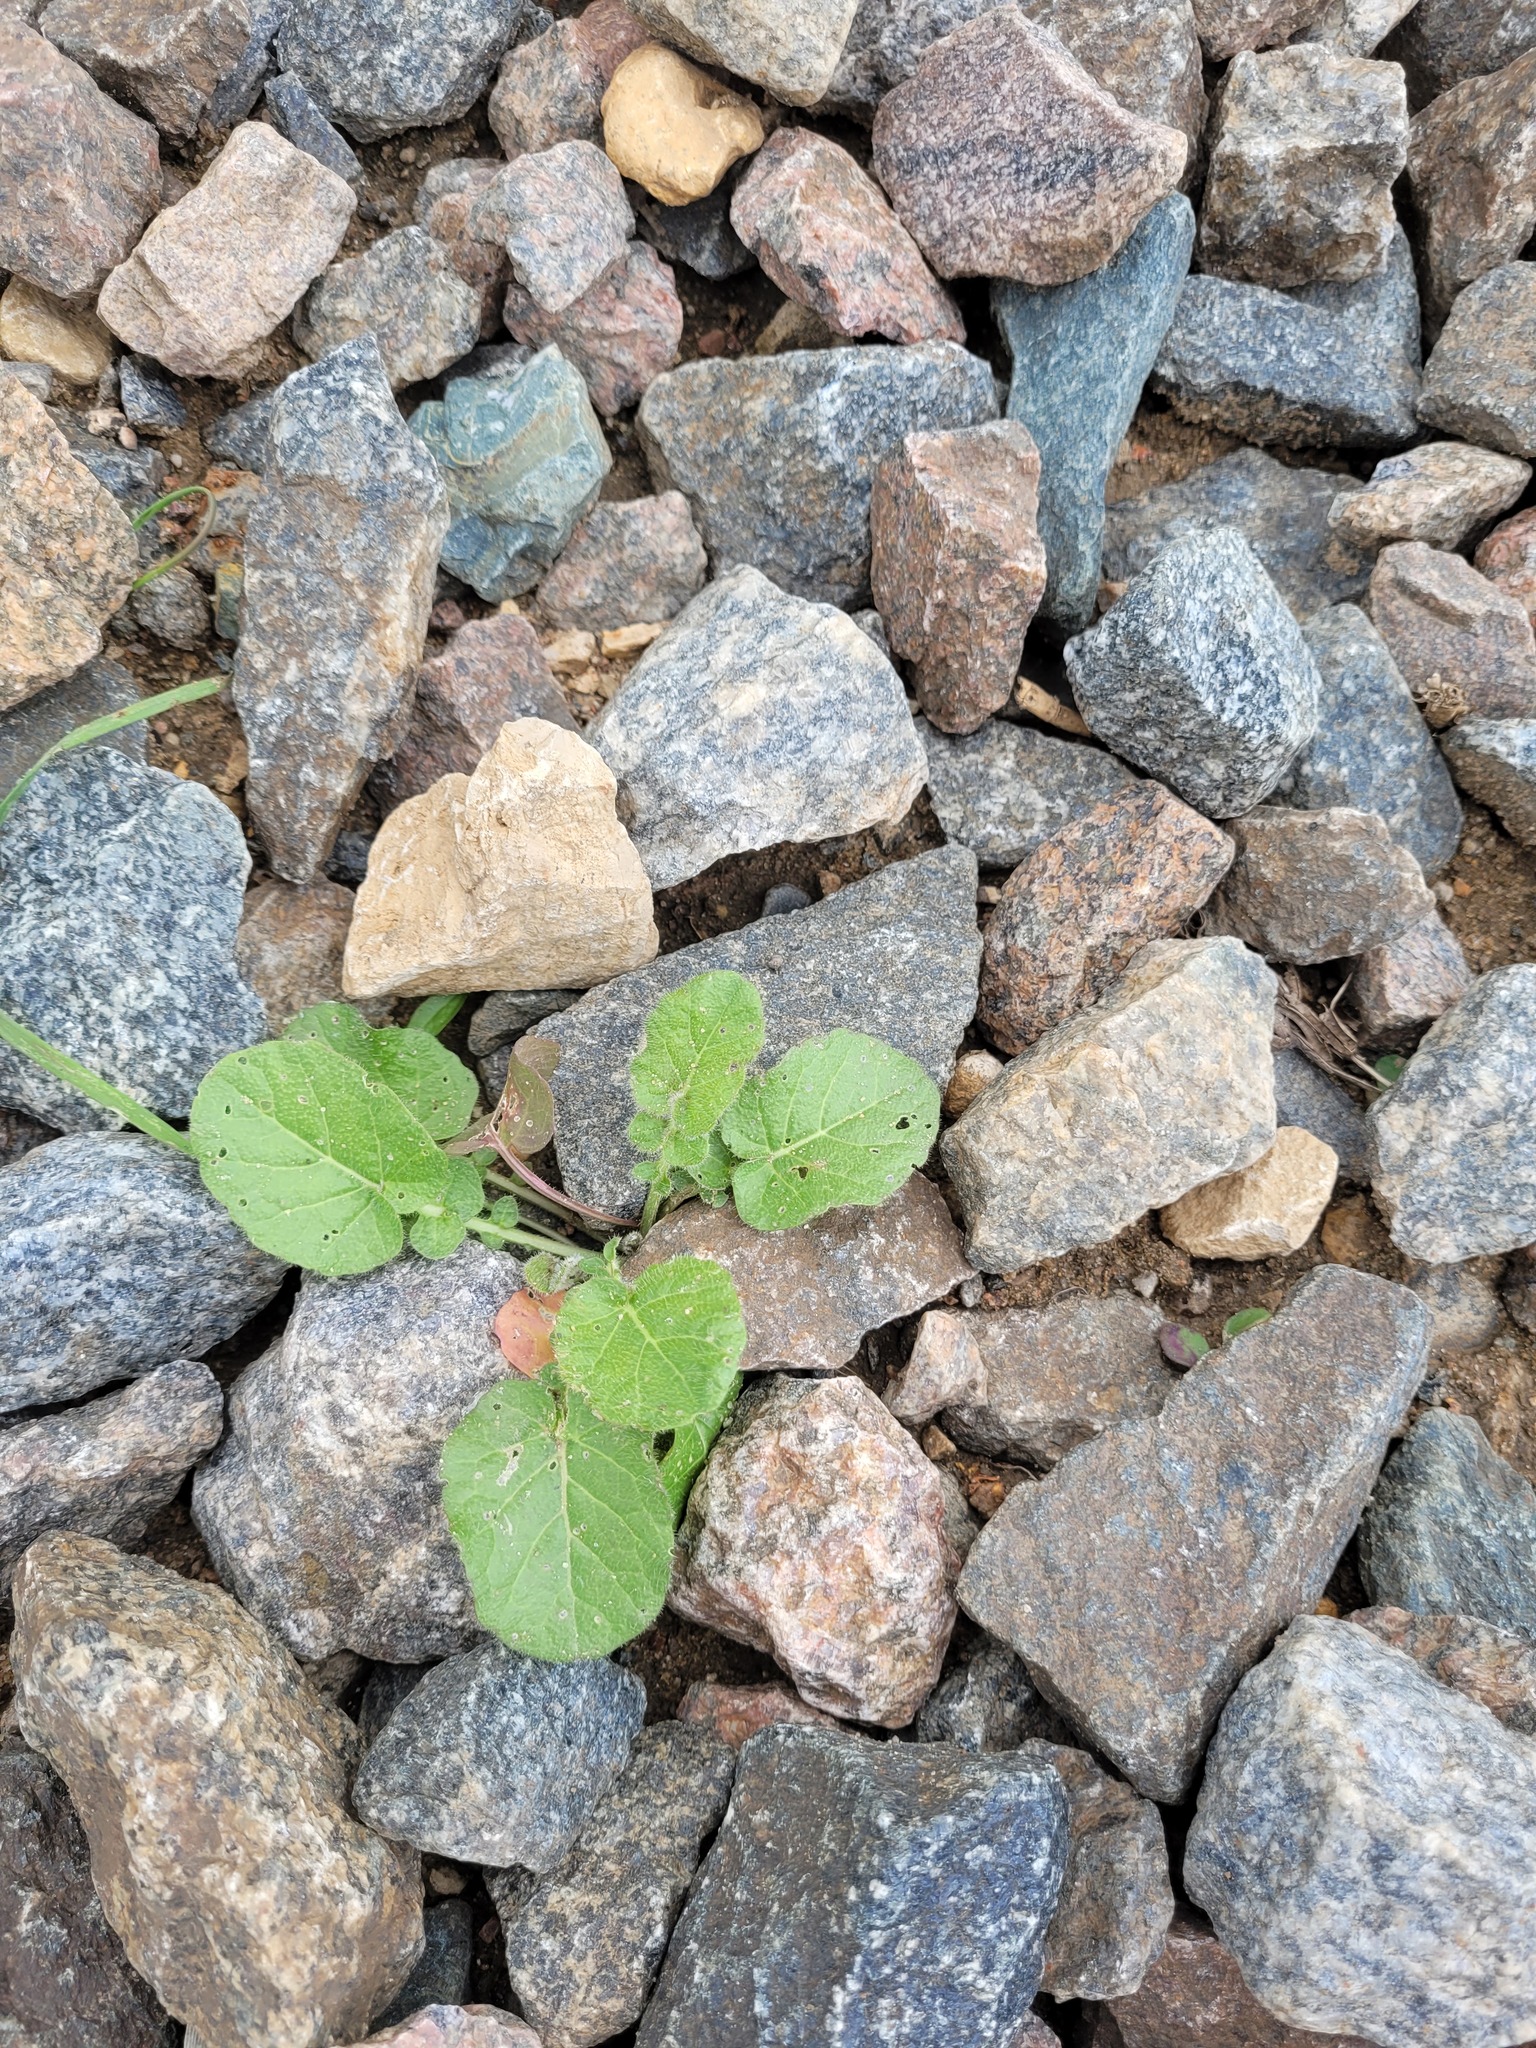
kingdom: Plantae
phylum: Tracheophyta
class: Magnoliopsida
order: Brassicales
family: Brassicaceae
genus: Barbarea
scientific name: Barbarea vulgaris
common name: Cressy-greens
